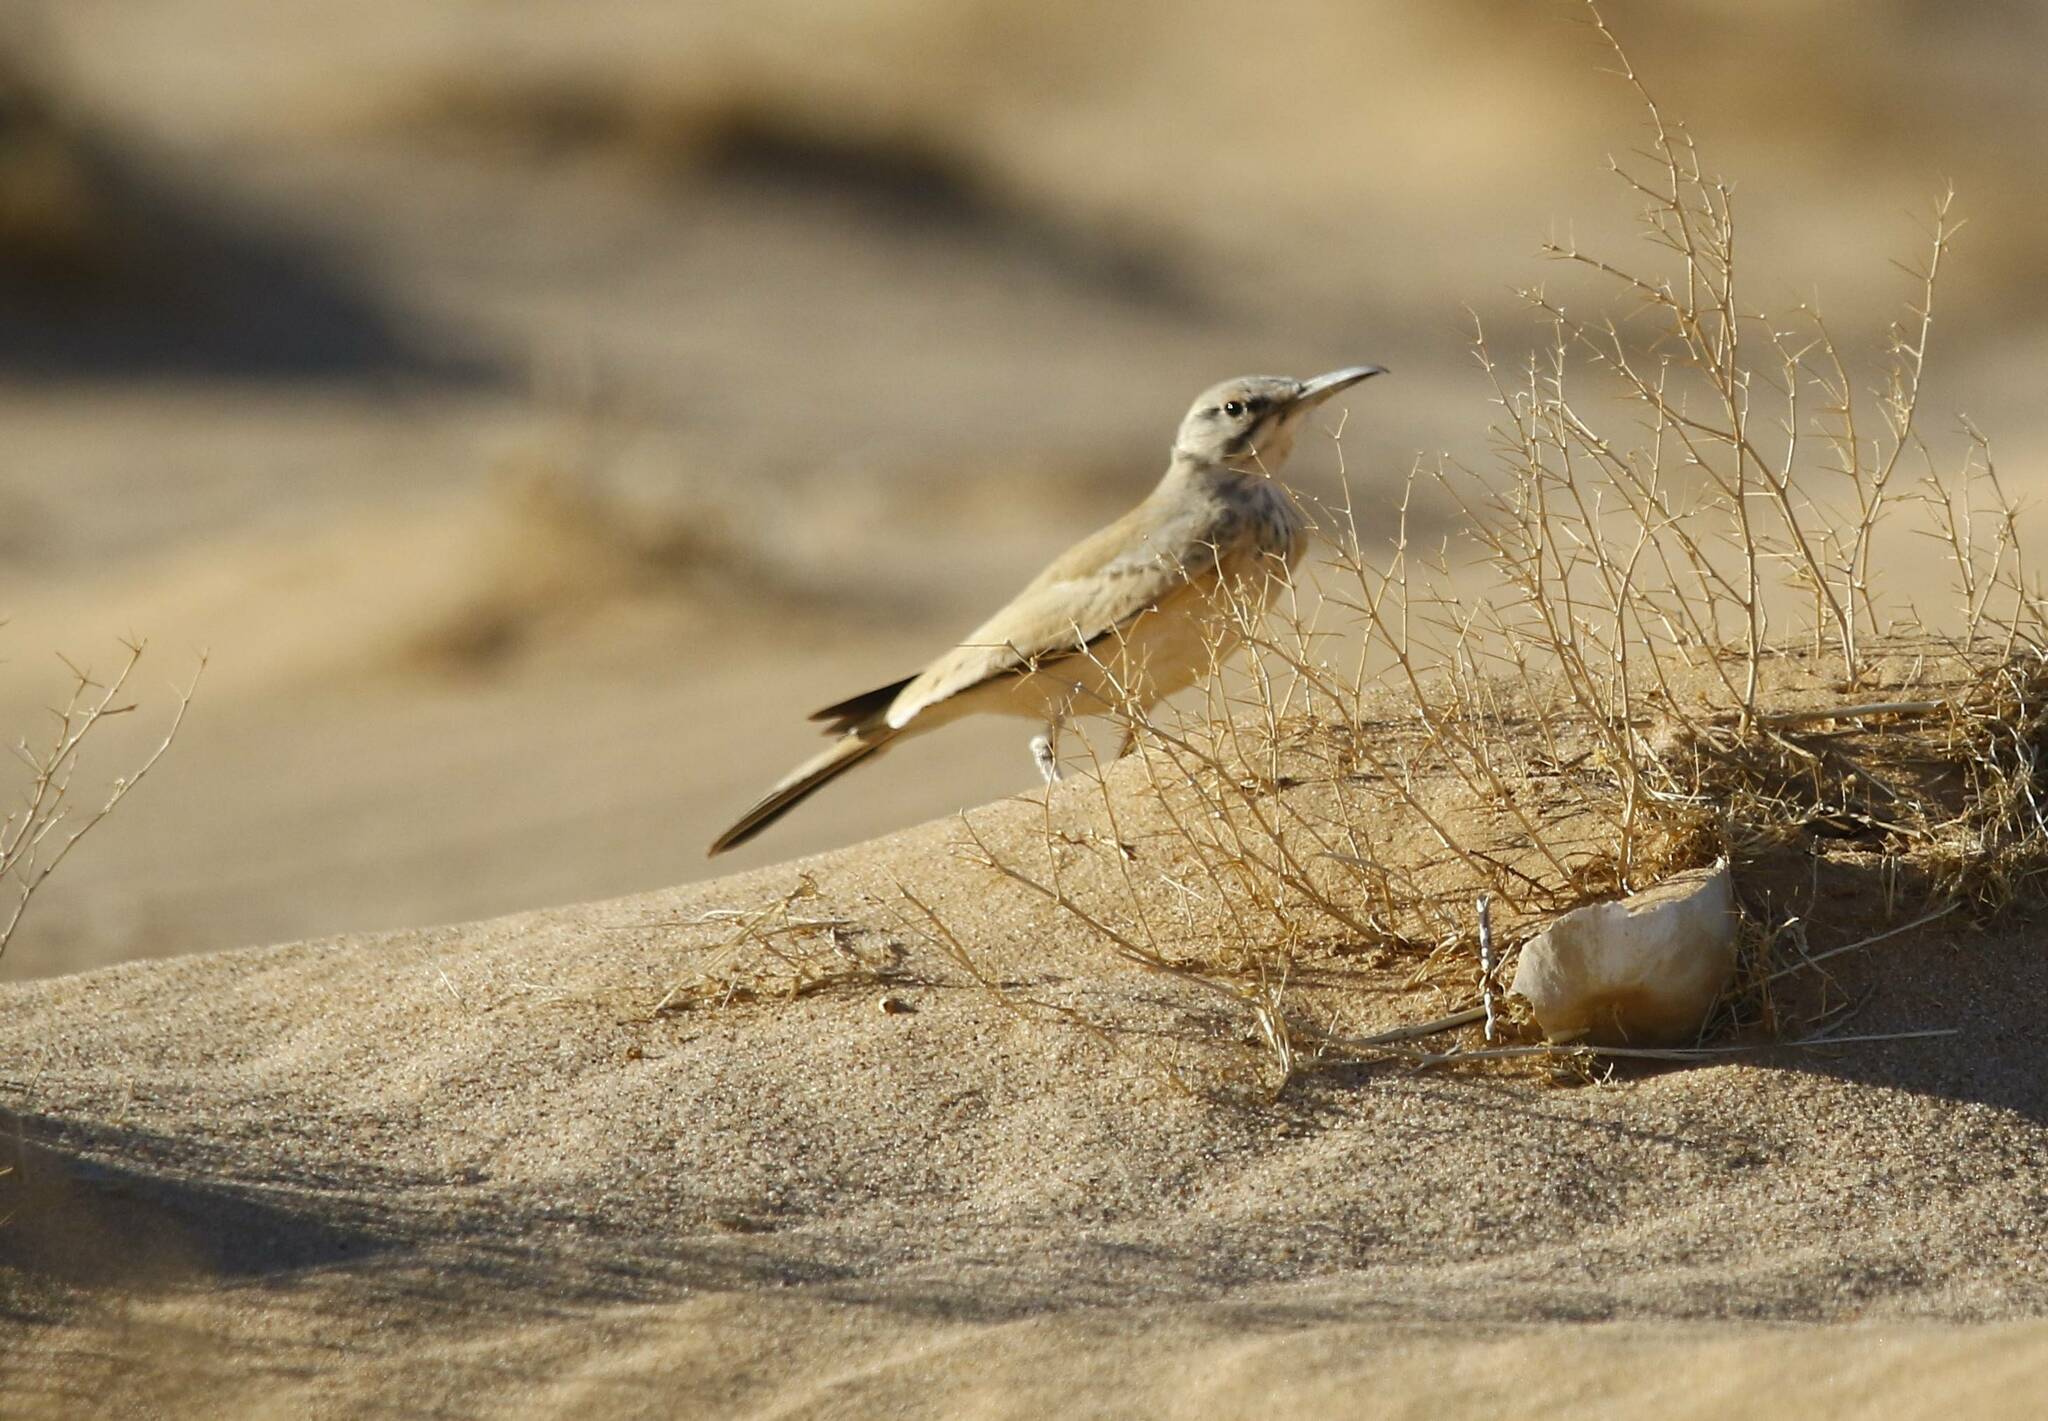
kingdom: Animalia
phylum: Chordata
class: Aves
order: Passeriformes
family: Alaudidae
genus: Alaemon
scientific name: Alaemon alaudipes
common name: Greater hoopoe-lark
